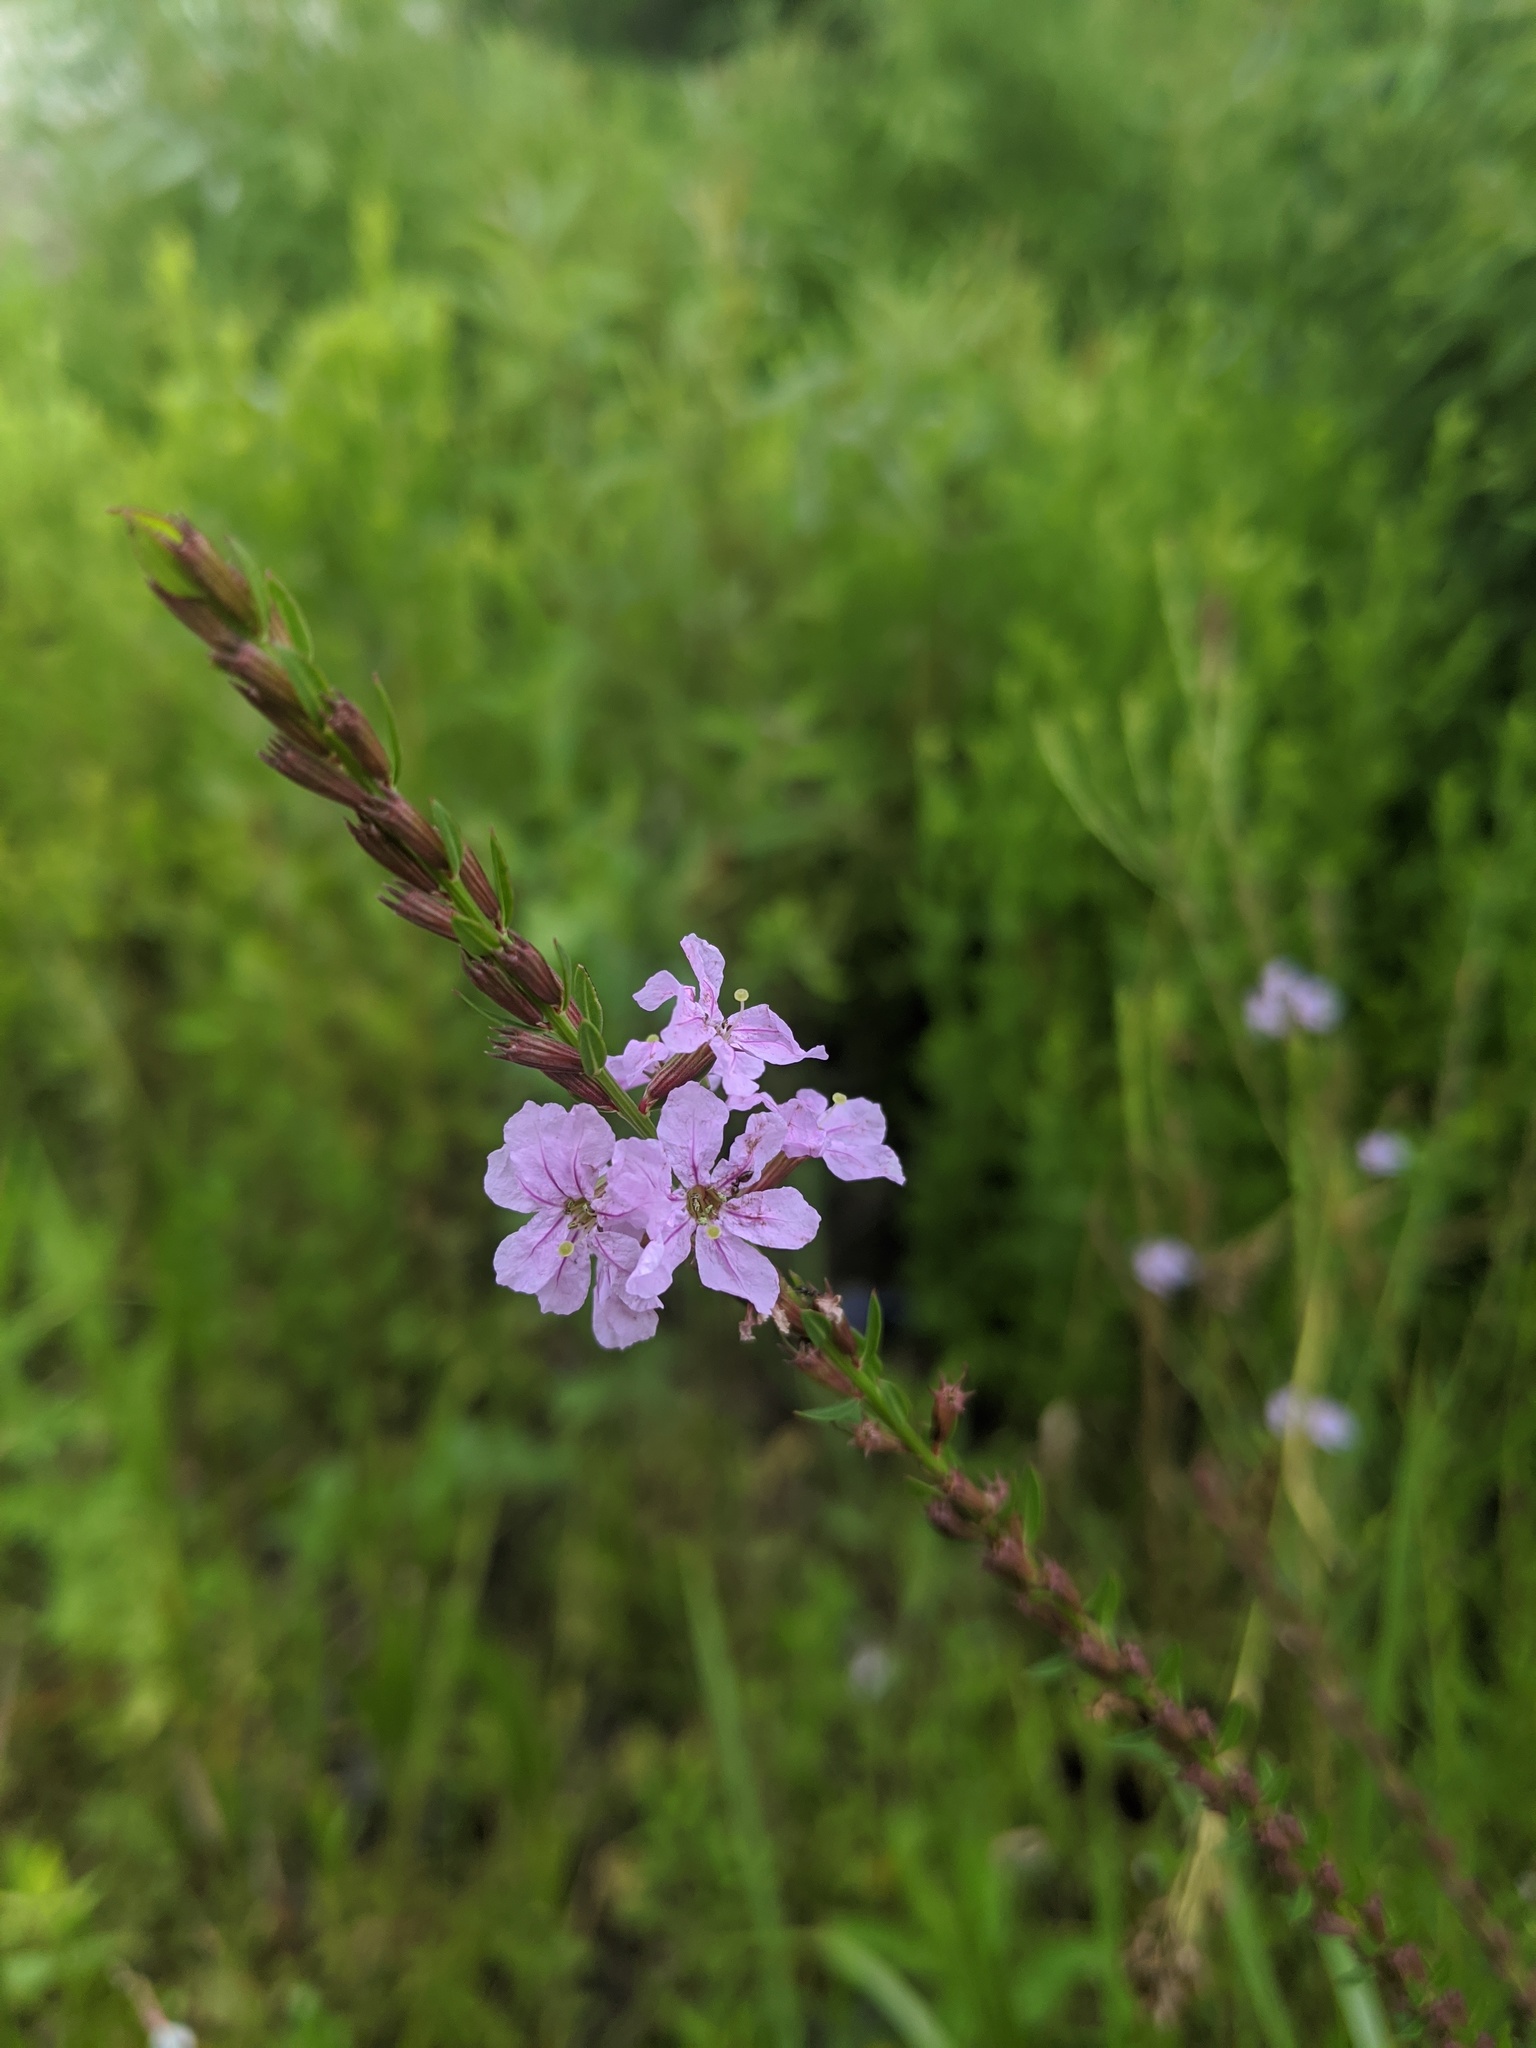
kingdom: Plantae
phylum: Tracheophyta
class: Magnoliopsida
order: Myrtales
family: Lythraceae
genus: Lythrum
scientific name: Lythrum alatum
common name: Winged loosestrife
